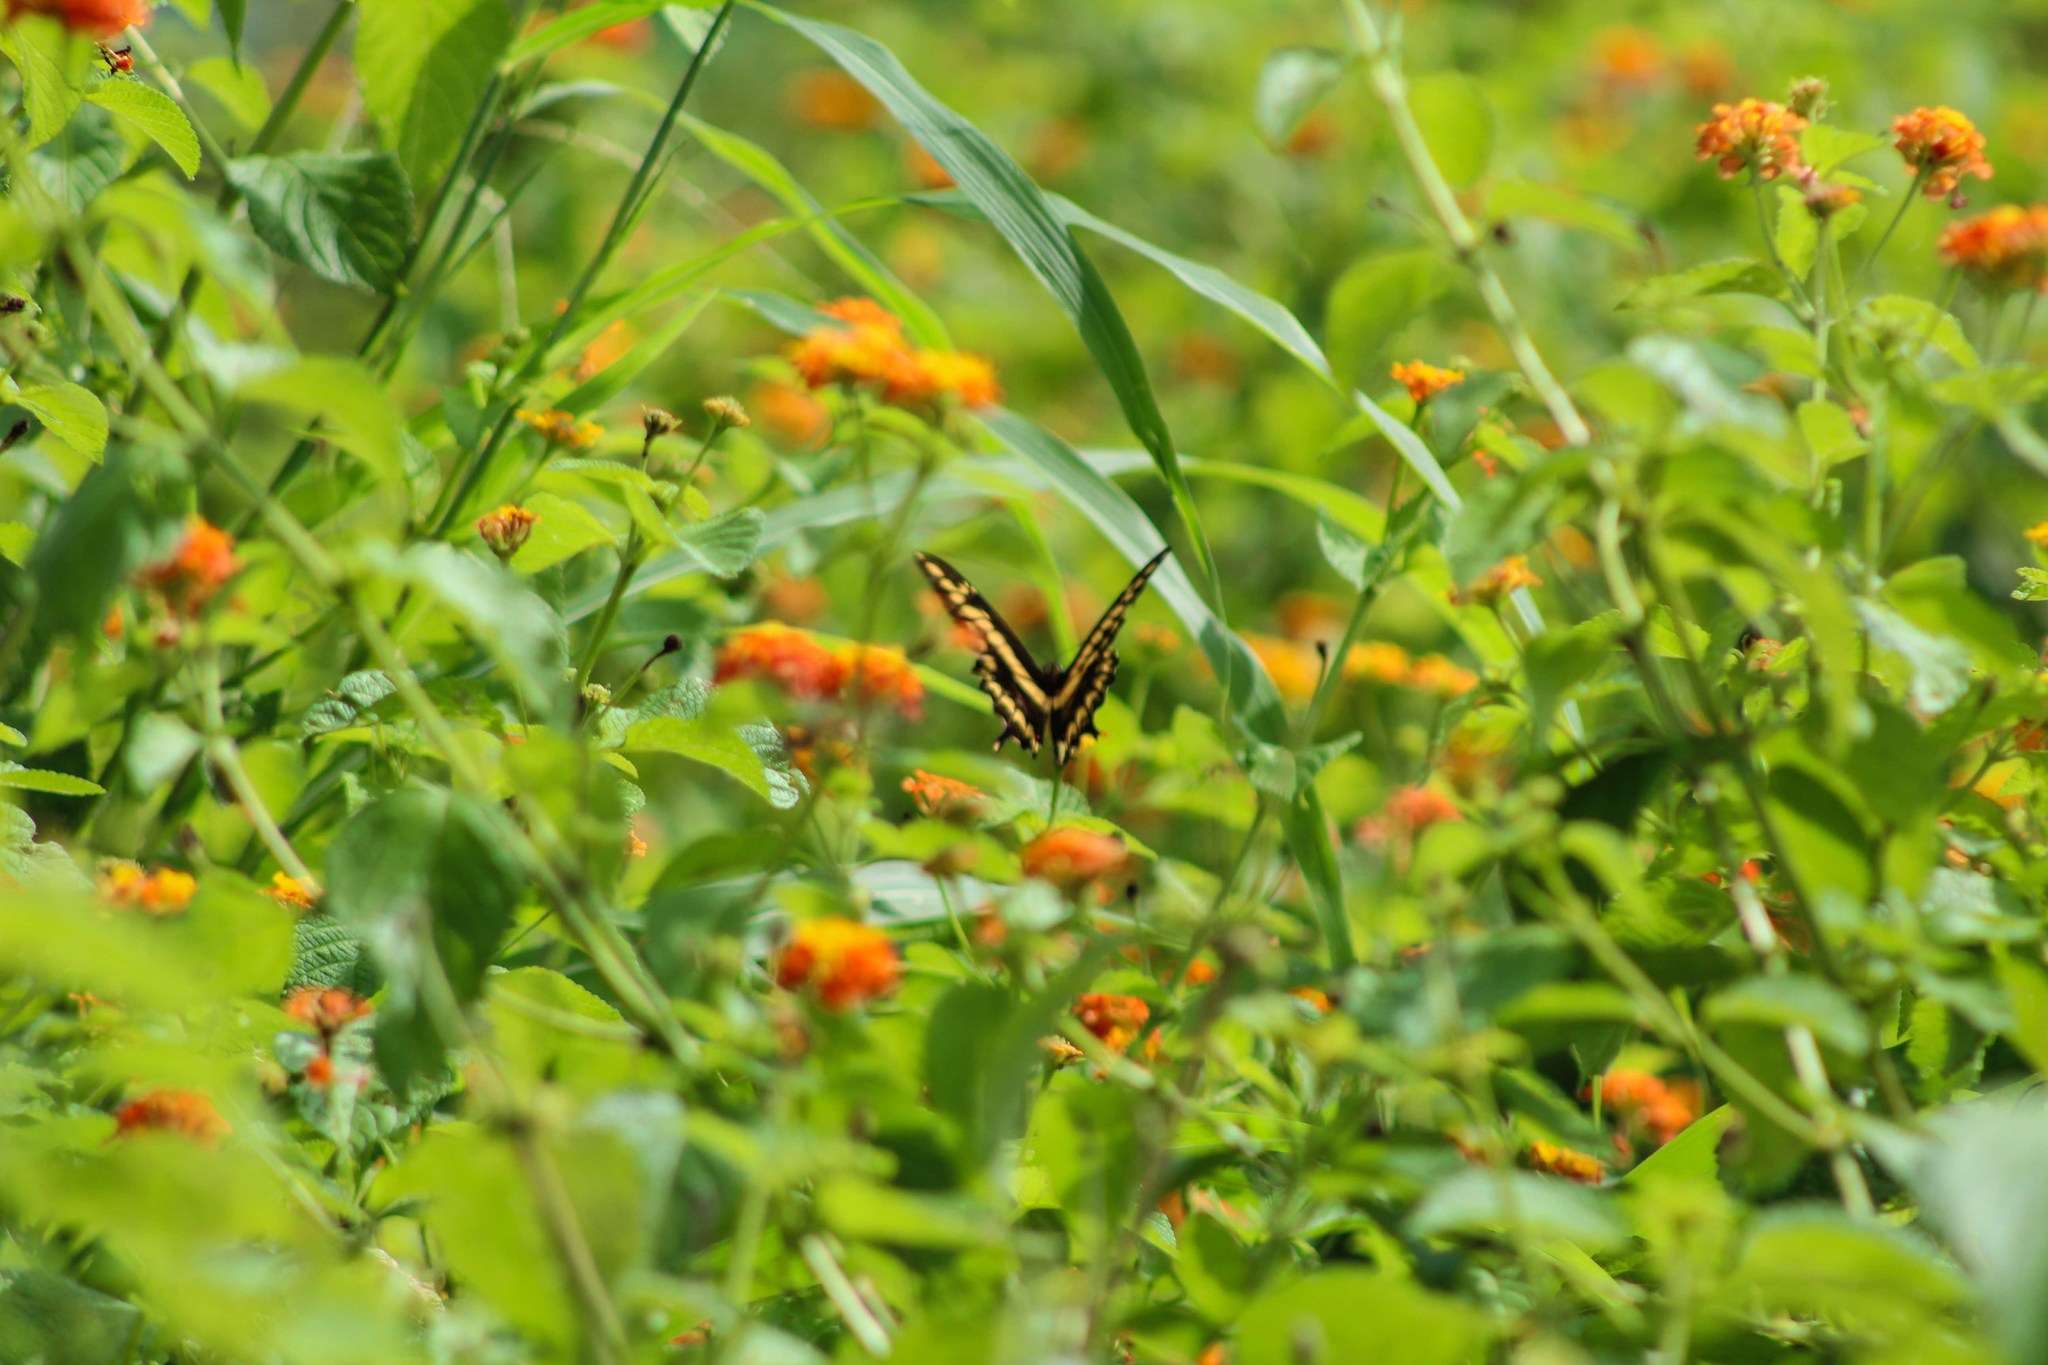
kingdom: Animalia
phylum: Arthropoda
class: Insecta
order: Lepidoptera
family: Papilionidae
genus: Papilio
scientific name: Papilio thoas
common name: King swallowtail
